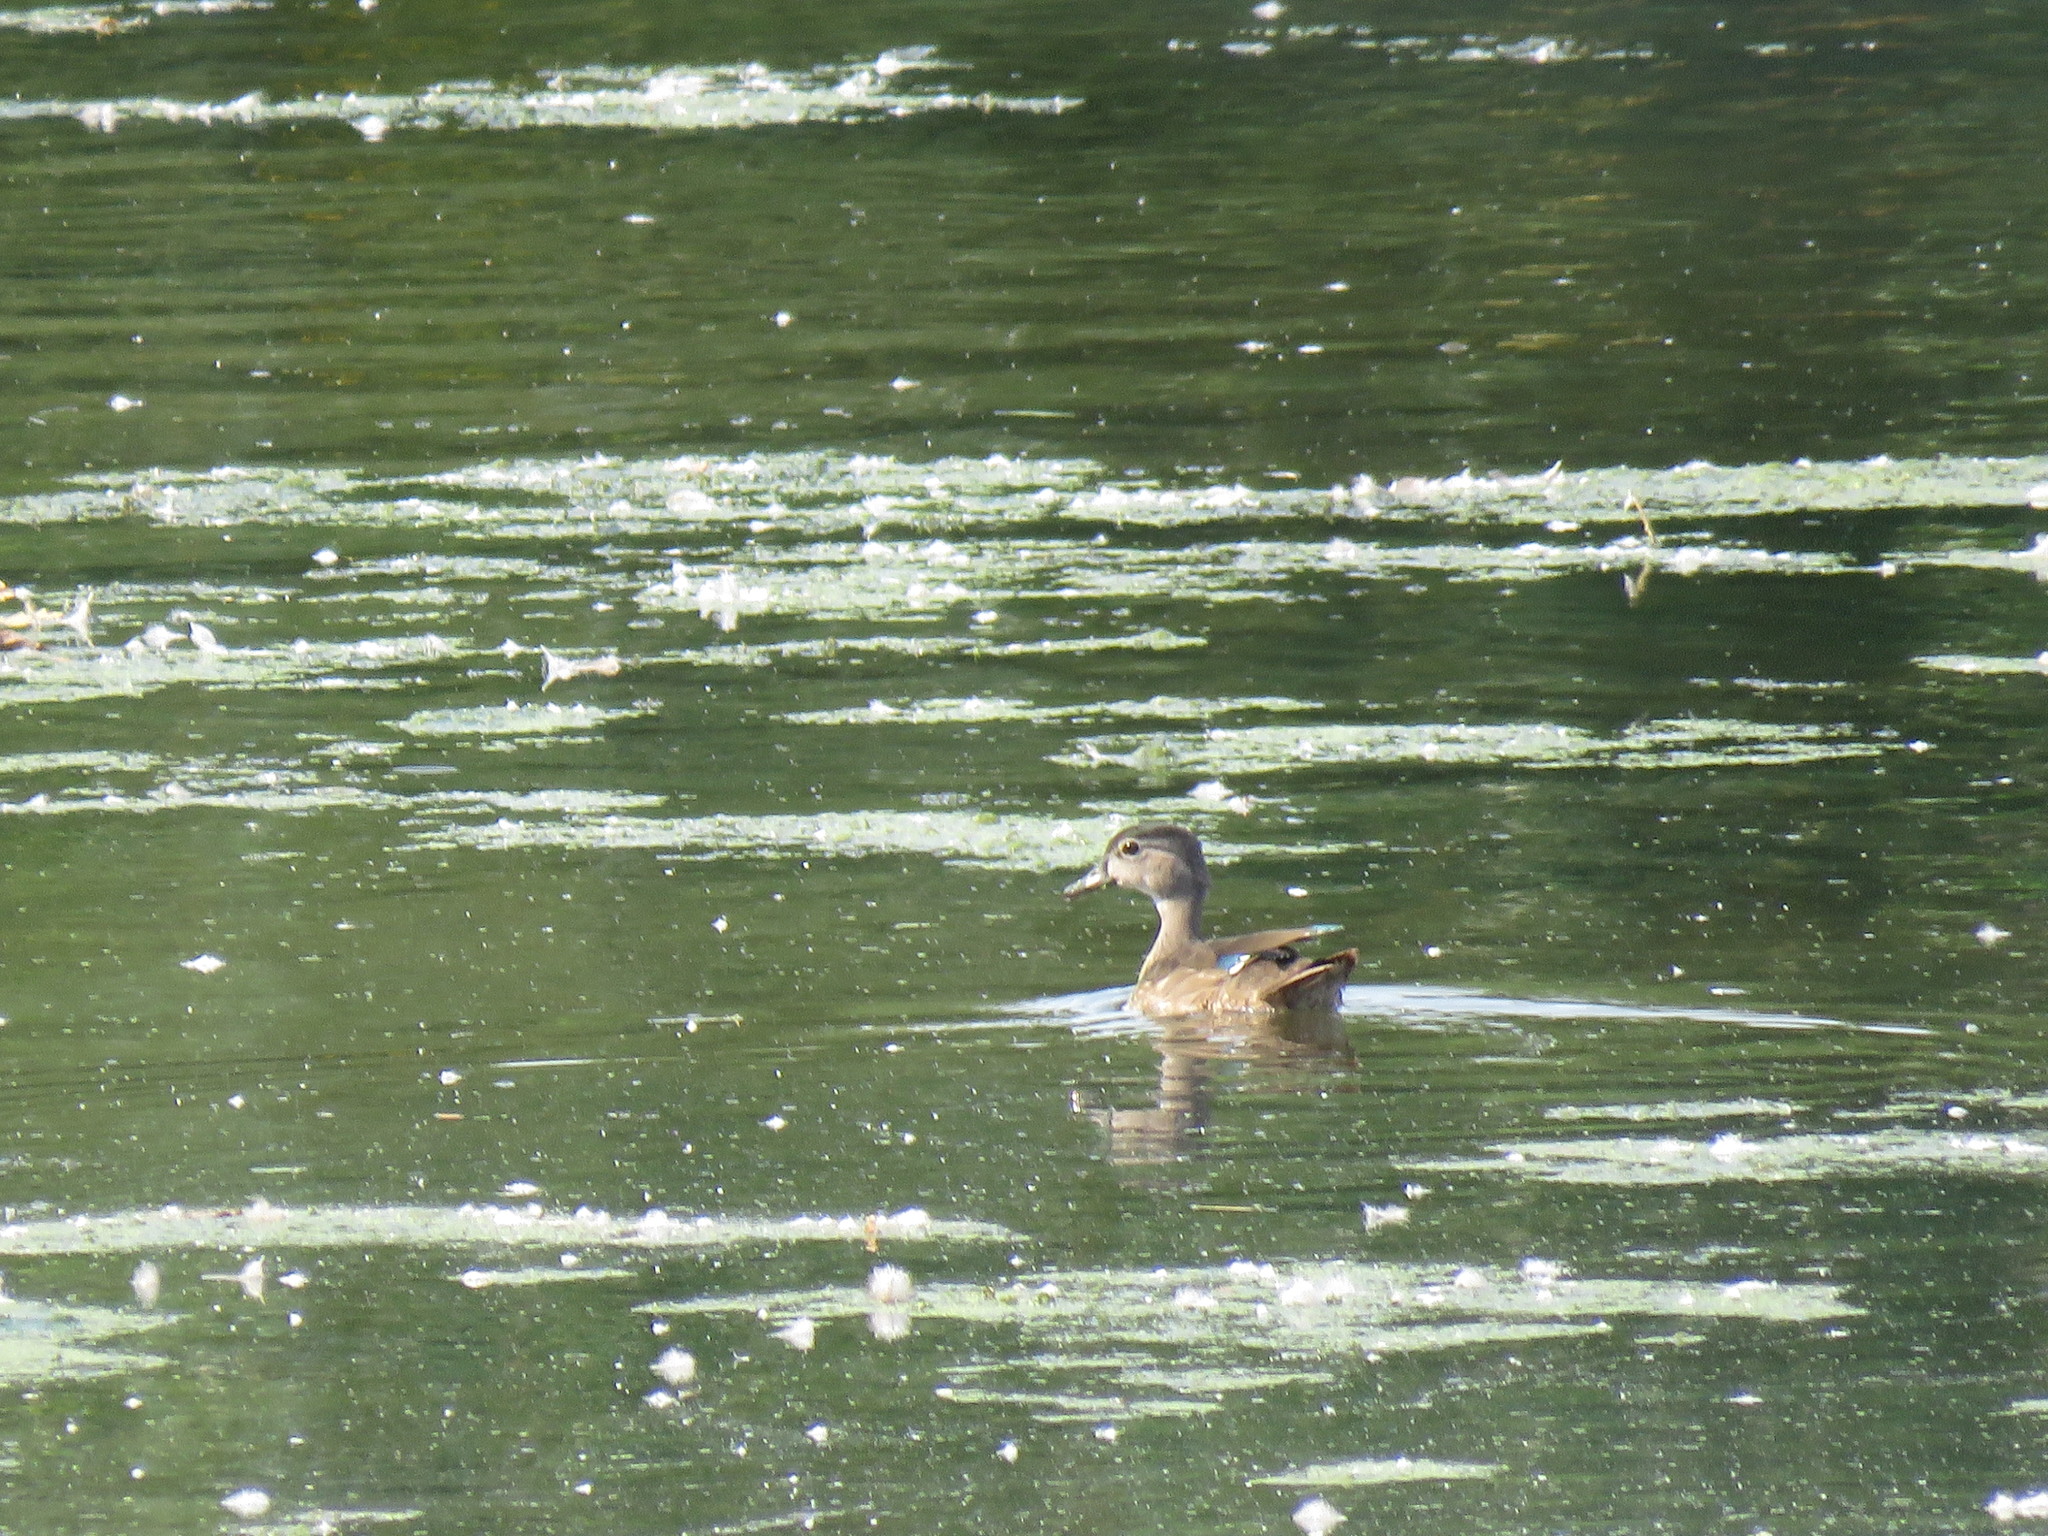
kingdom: Animalia
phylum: Chordata
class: Aves
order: Anseriformes
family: Anatidae
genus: Aix
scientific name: Aix sponsa
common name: Wood duck
